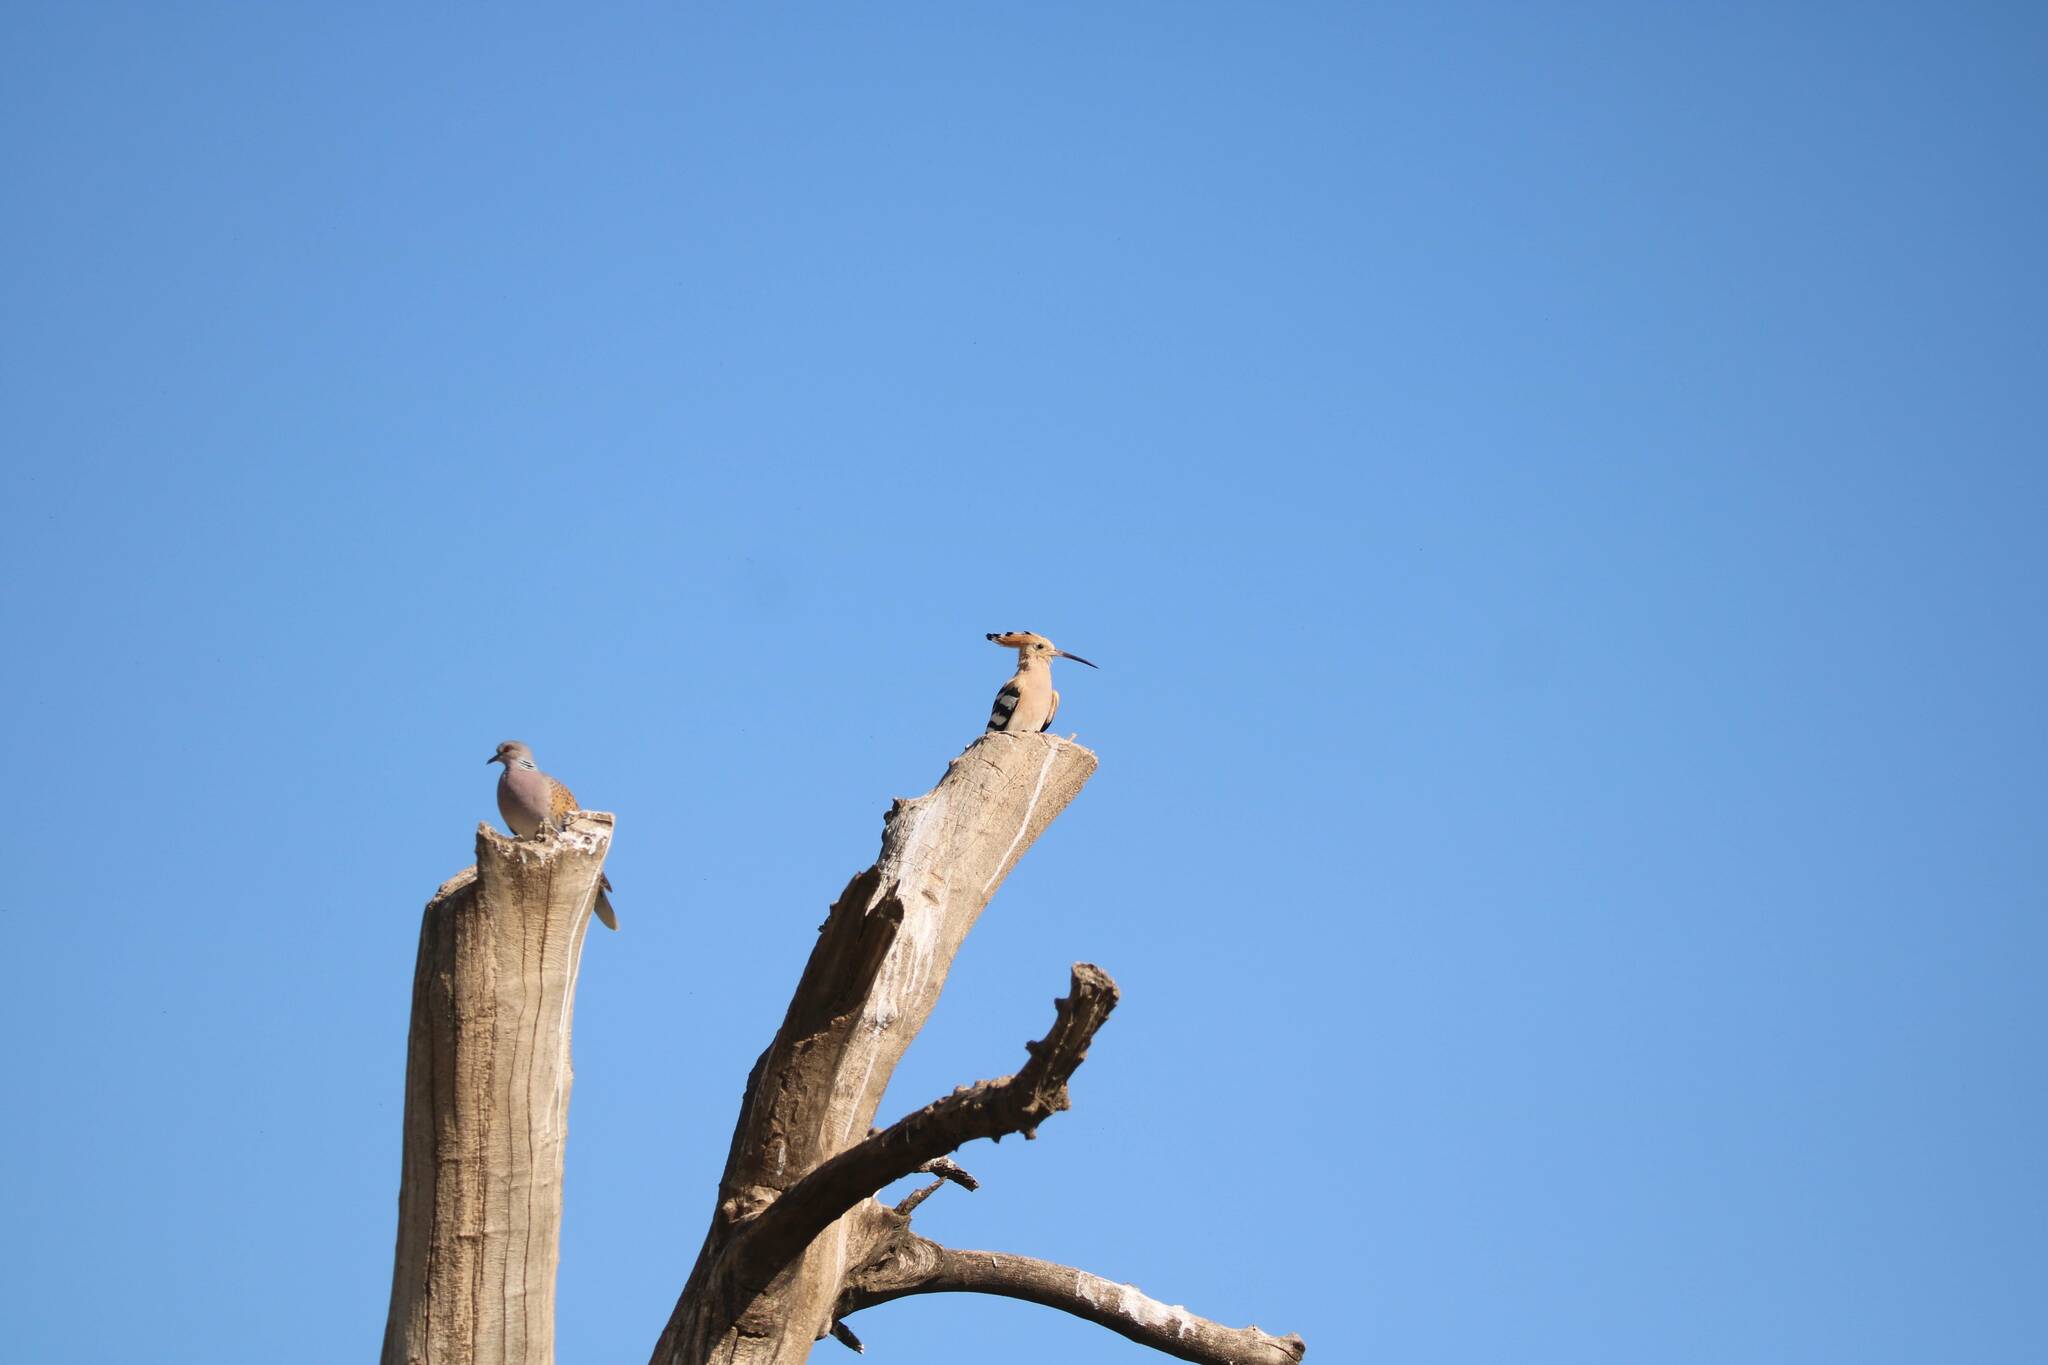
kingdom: Animalia
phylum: Chordata
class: Aves
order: Columbiformes
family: Columbidae
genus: Streptopelia
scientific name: Streptopelia turtur
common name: European turtle dove
